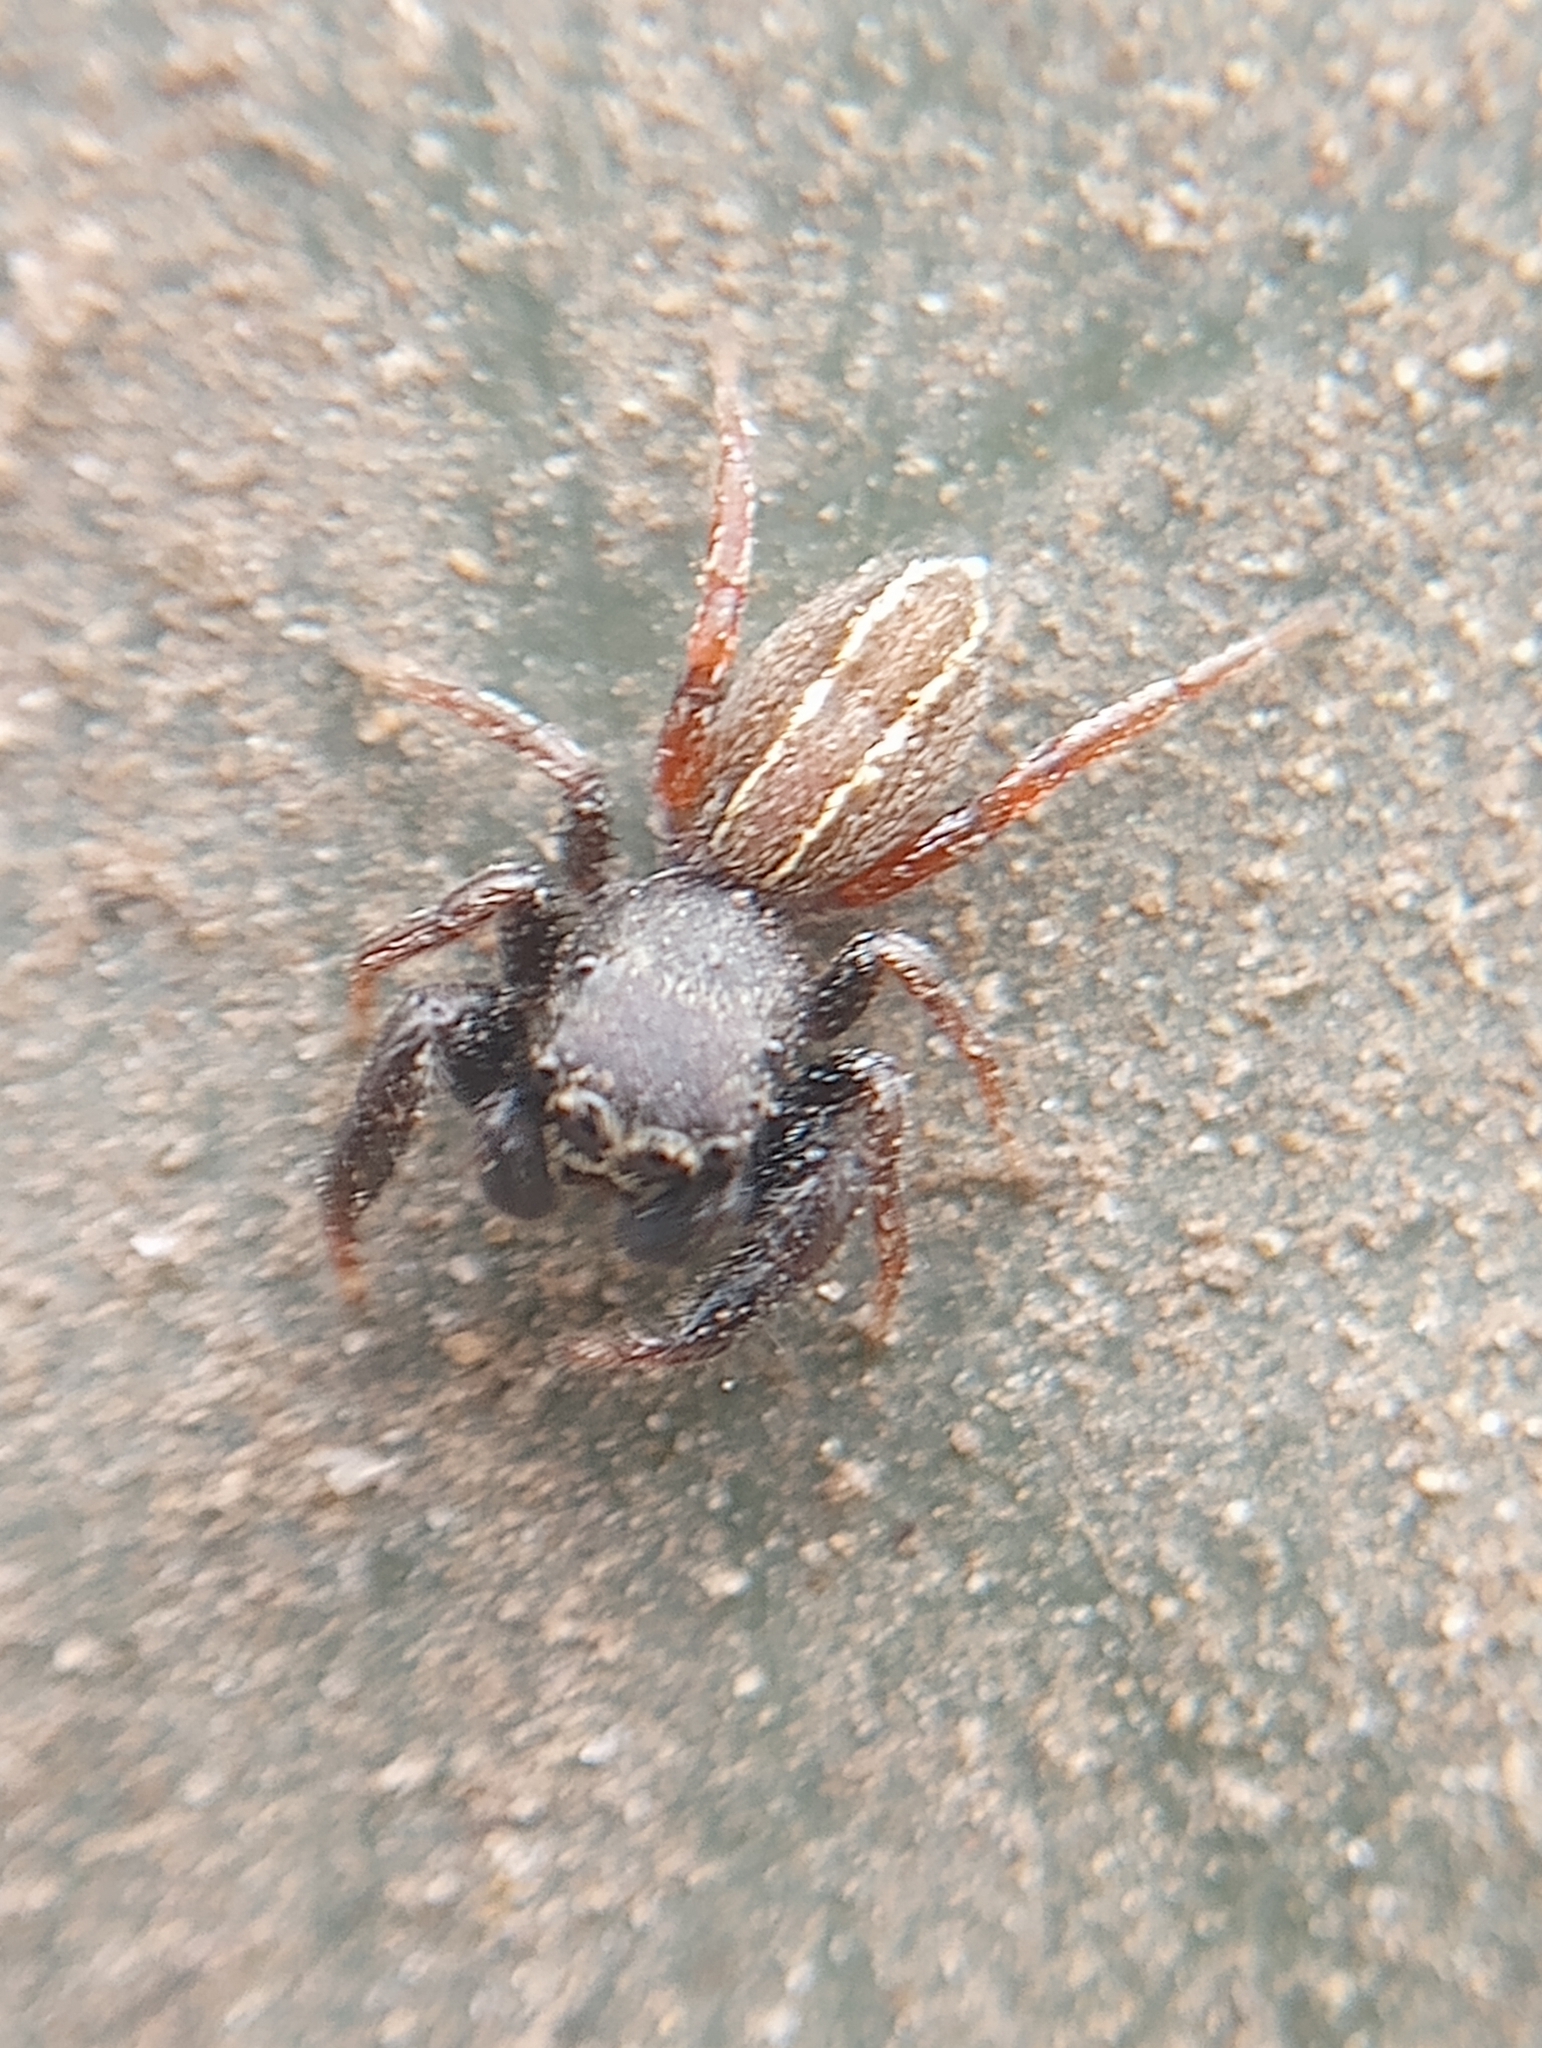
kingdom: Animalia
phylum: Arthropoda
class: Arachnida
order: Araneae
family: Salticidae
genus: Metacyrba
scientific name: Metacyrba taeniola
